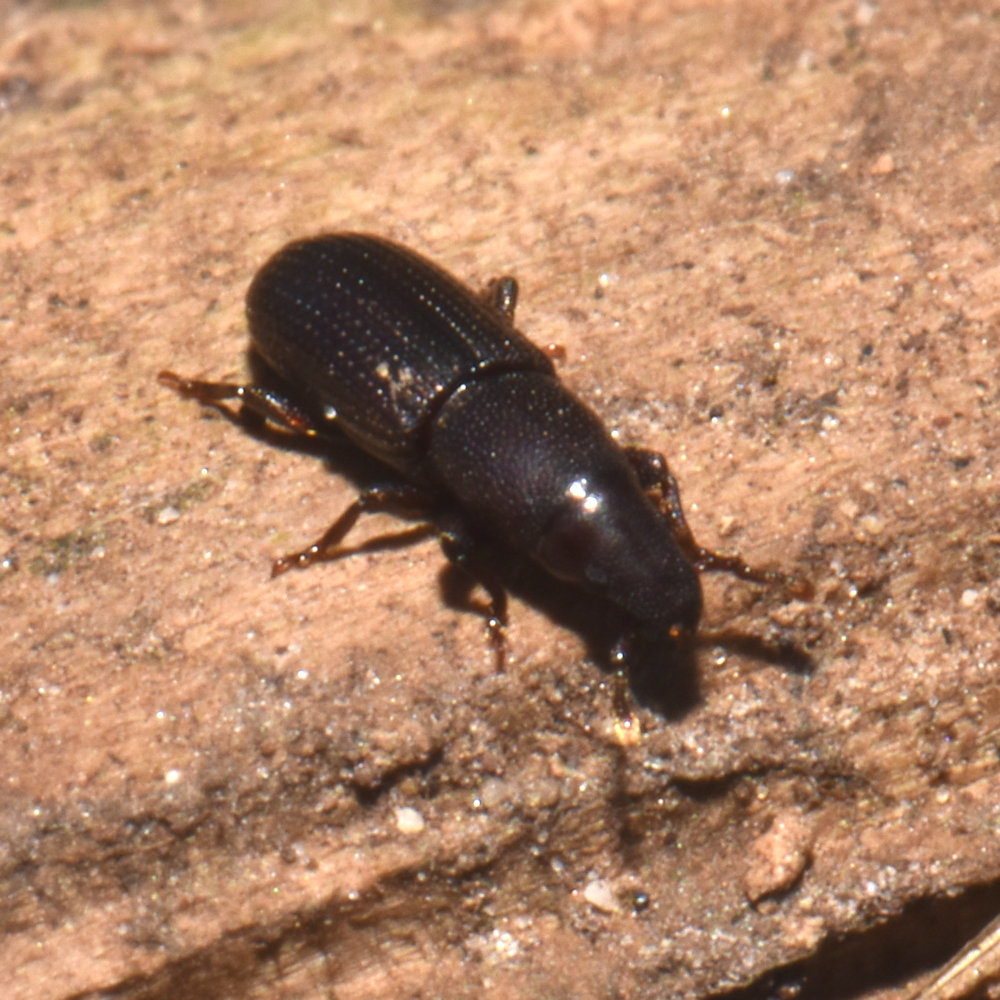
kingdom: Animalia
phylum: Arthropoda
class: Insecta
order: Coleoptera
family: Curculionidae
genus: Cossonus
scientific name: Cossonus corticola
